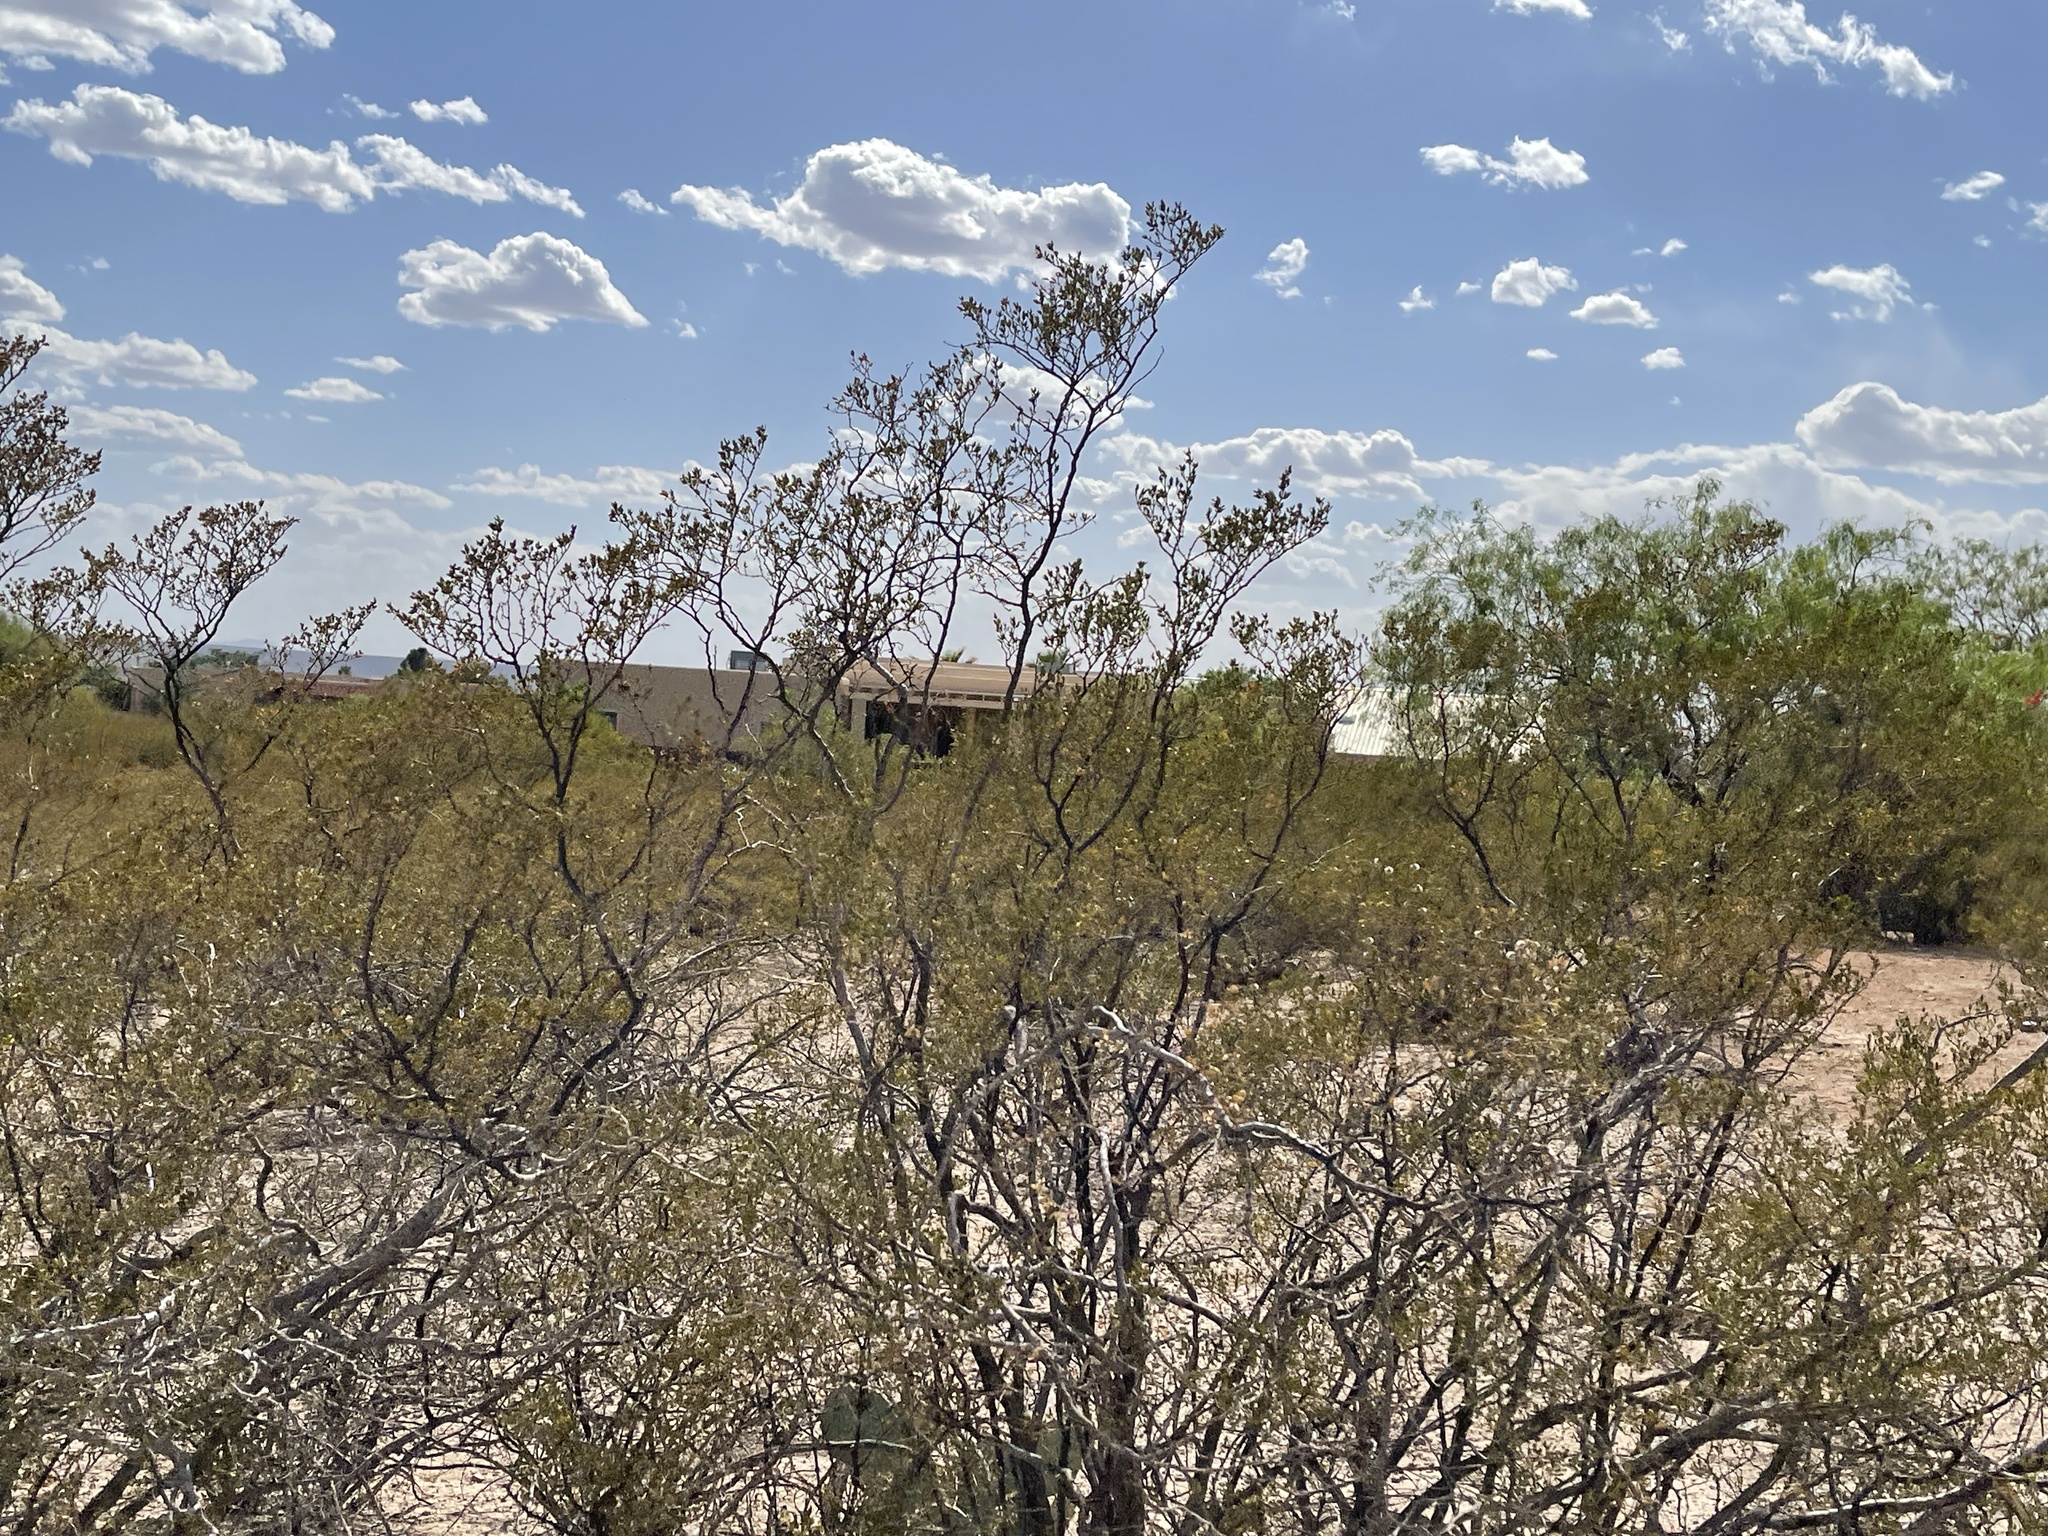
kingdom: Plantae
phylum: Tracheophyta
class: Magnoliopsida
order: Zygophyllales
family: Zygophyllaceae
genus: Larrea
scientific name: Larrea tridentata
